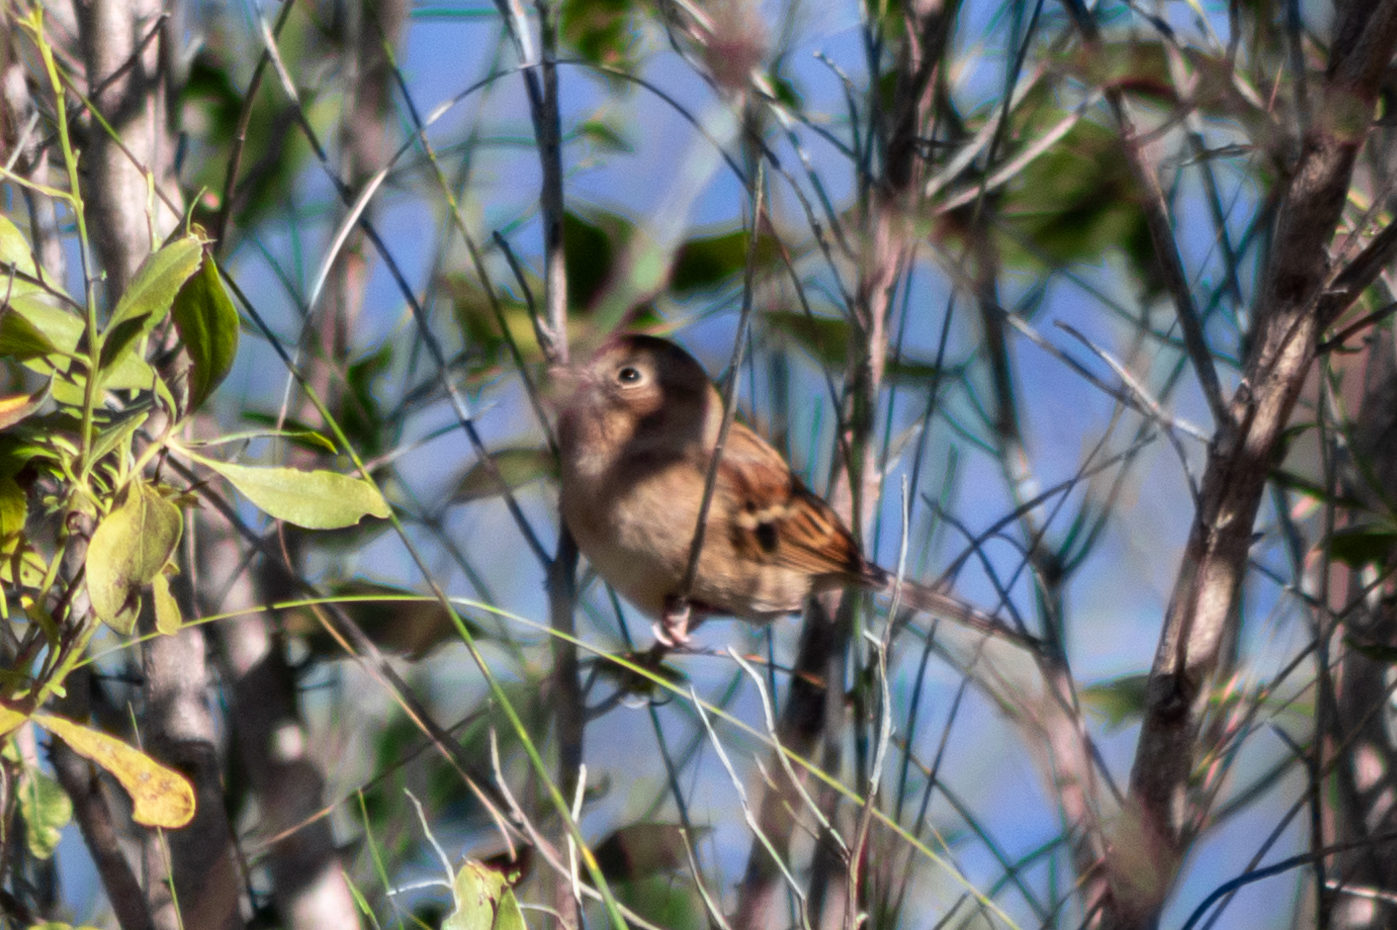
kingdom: Animalia
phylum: Chordata
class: Aves
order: Passeriformes
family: Passerellidae
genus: Spizella
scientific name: Spizella pusilla
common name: Field sparrow
